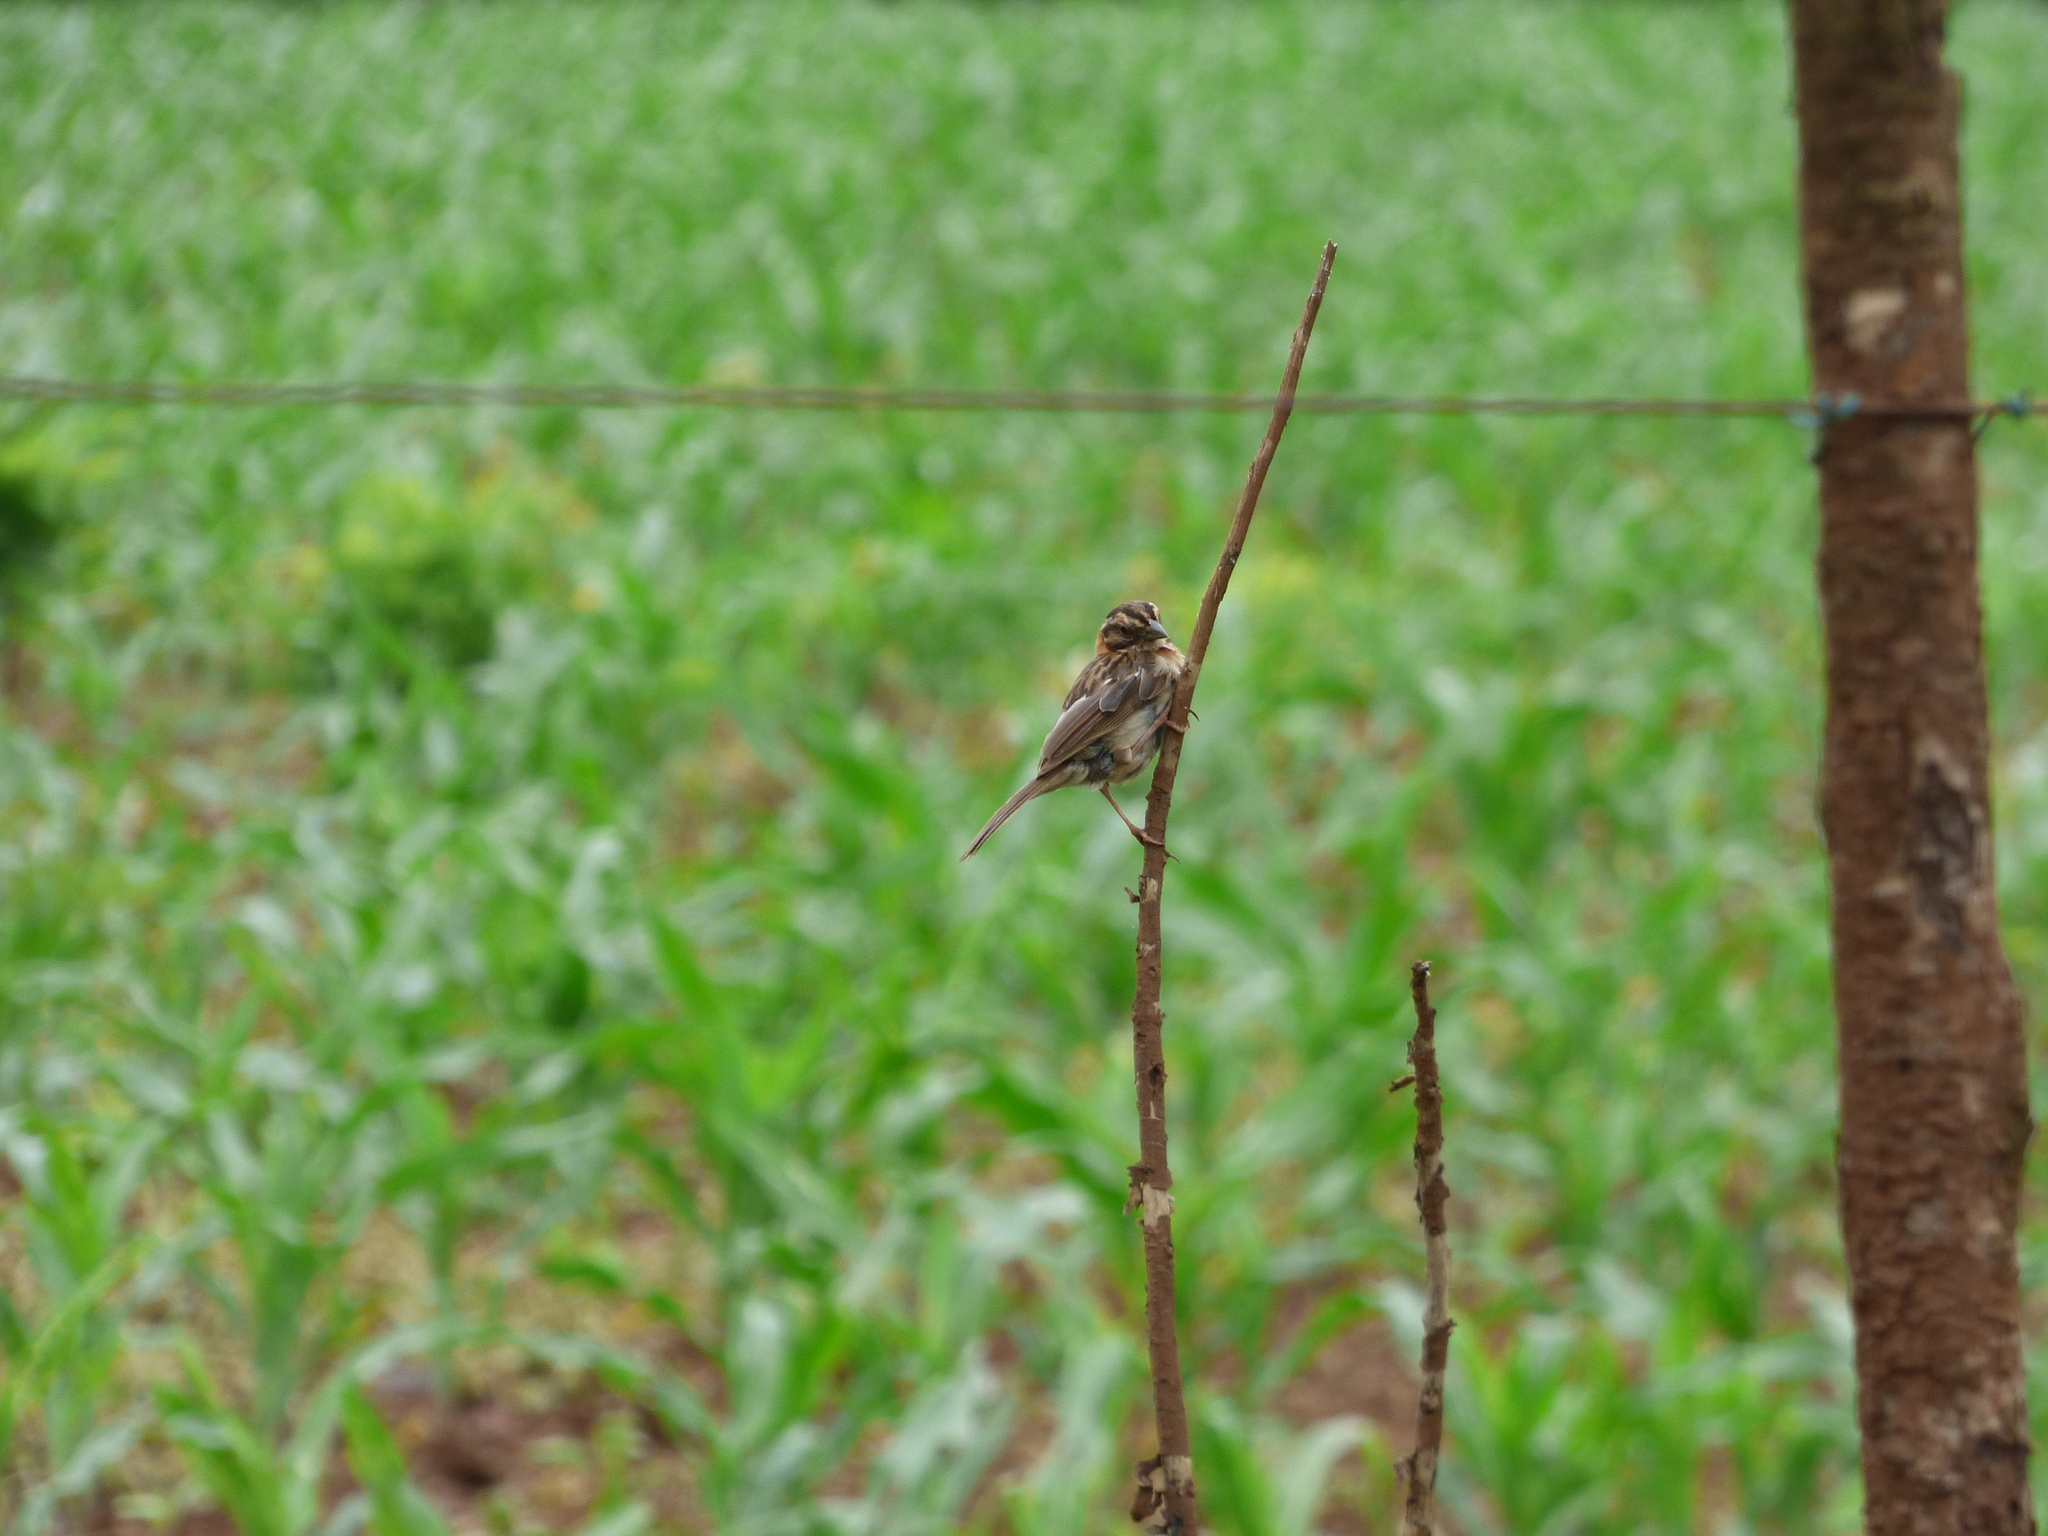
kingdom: Animalia
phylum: Chordata
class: Aves
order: Passeriformes
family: Passerellidae
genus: Zonotrichia
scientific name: Zonotrichia capensis
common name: Rufous-collared sparrow
